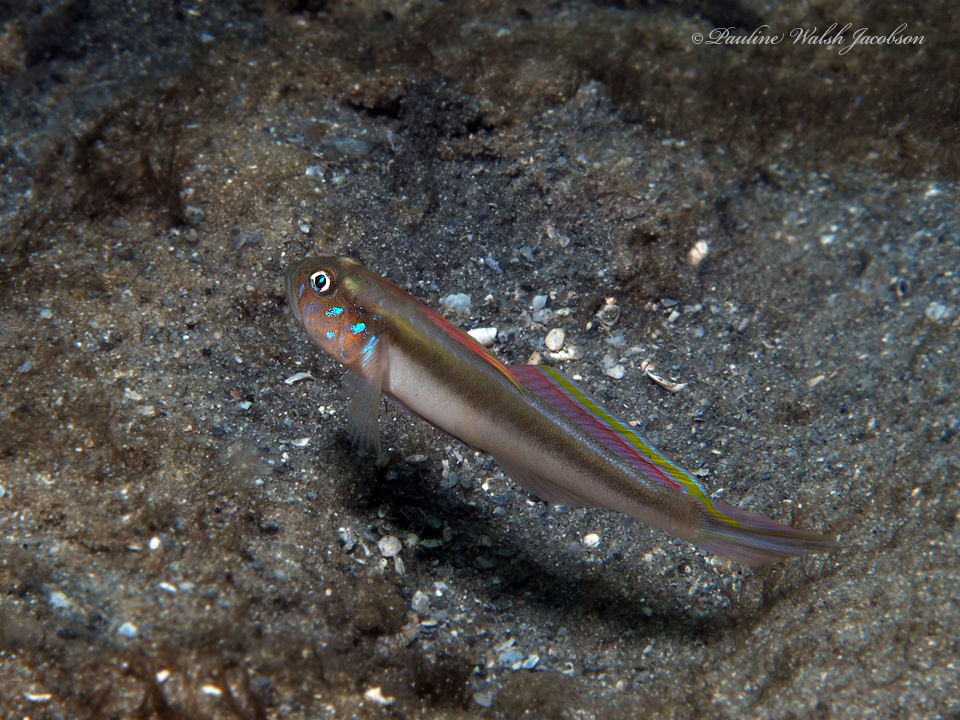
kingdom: Animalia
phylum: Chordata
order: Perciformes
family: Gobiidae
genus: Microgobius
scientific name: Microgobius microlepis
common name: Banner goby
